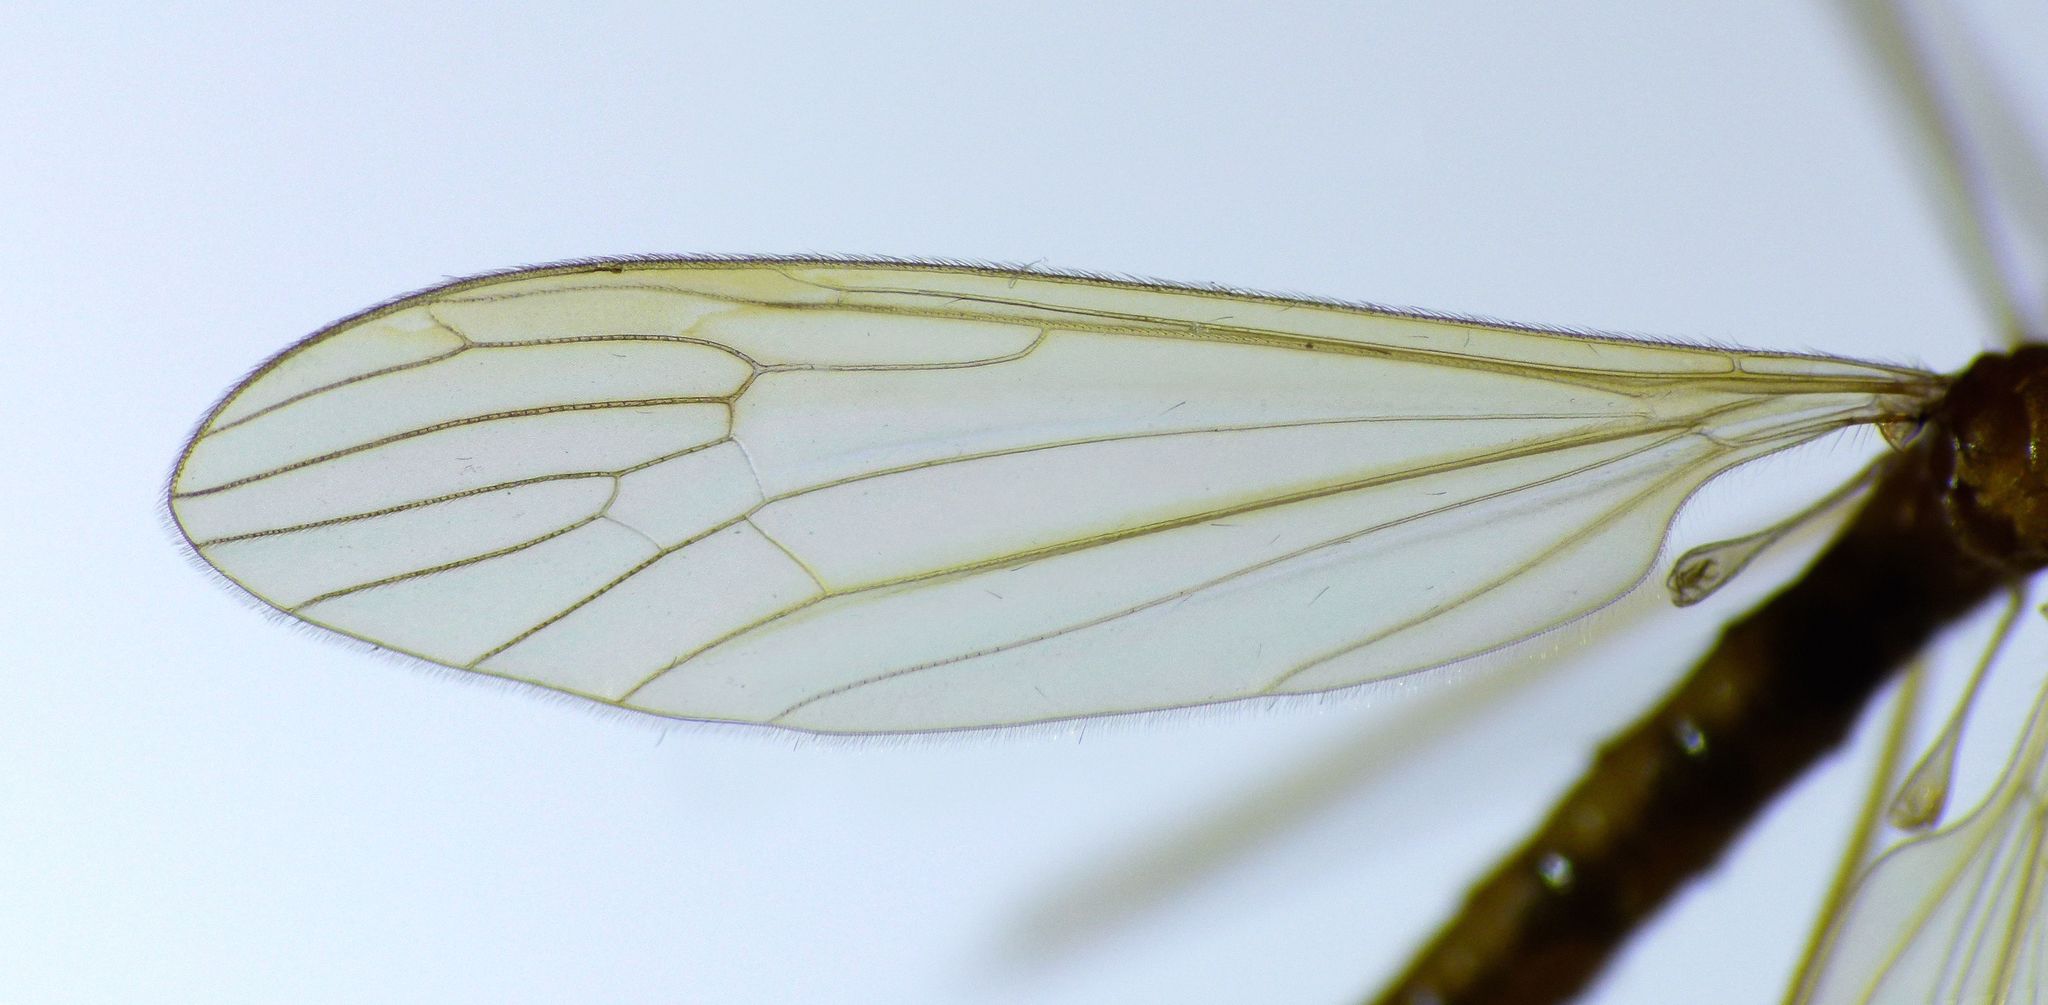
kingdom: Animalia
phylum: Arthropoda
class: Insecta
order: Diptera
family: Limoniidae
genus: Atarba
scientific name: Atarba eluta
